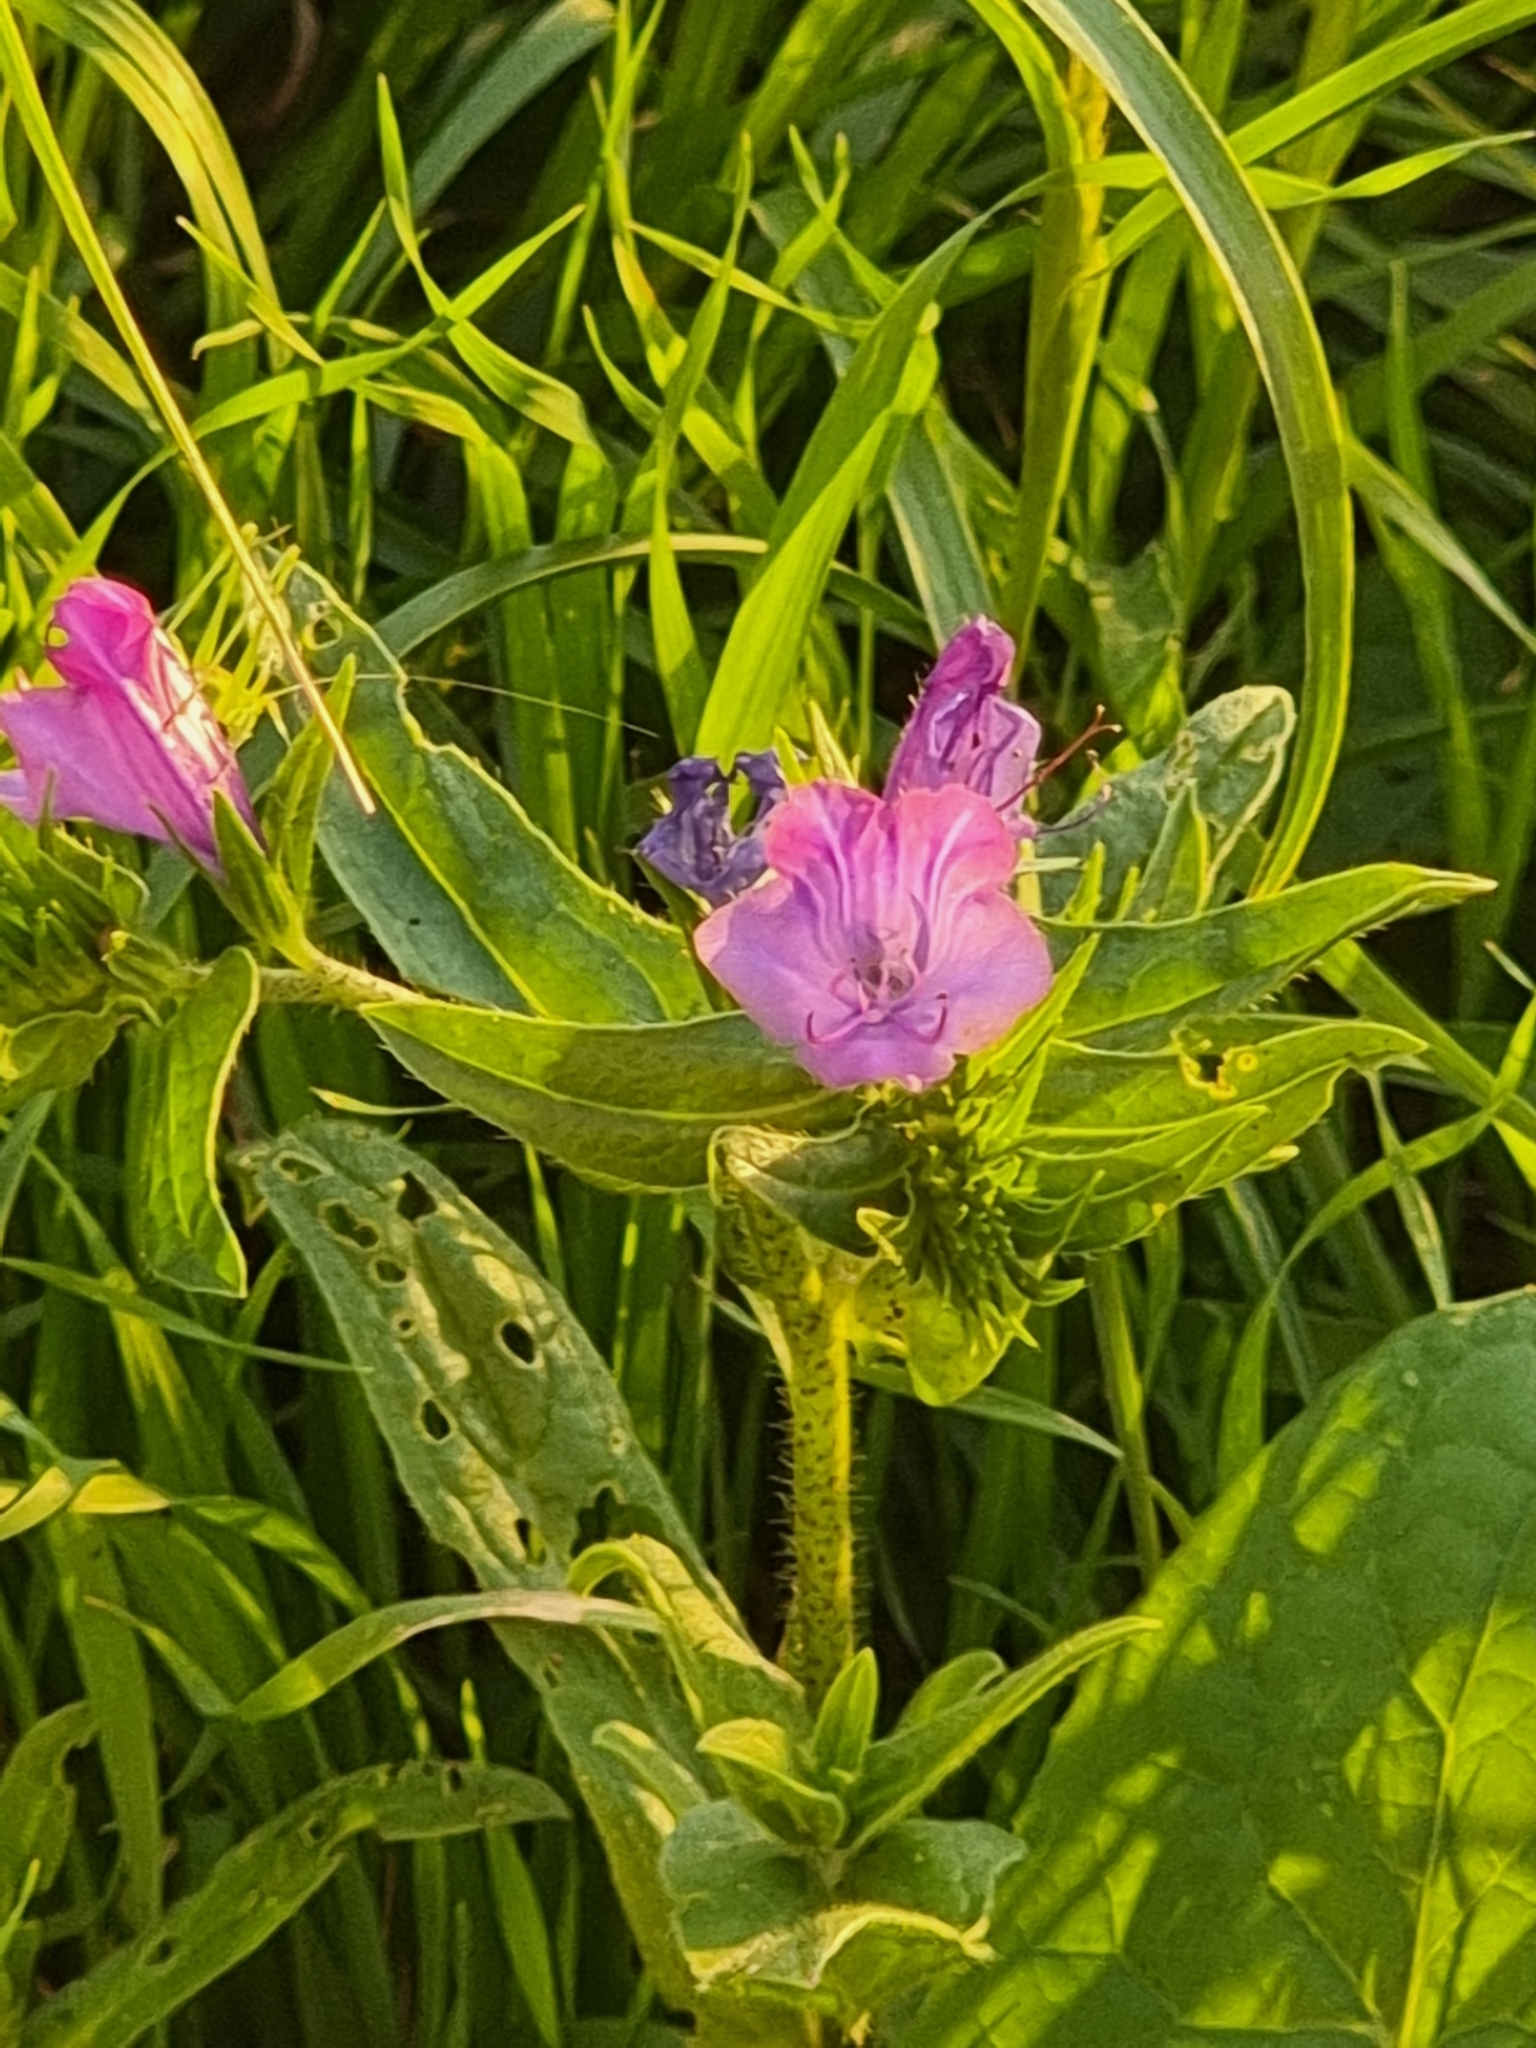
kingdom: Plantae
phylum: Tracheophyta
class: Magnoliopsida
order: Boraginales
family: Boraginaceae
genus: Echium
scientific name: Echium plantagineum
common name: Purple viper's-bugloss
